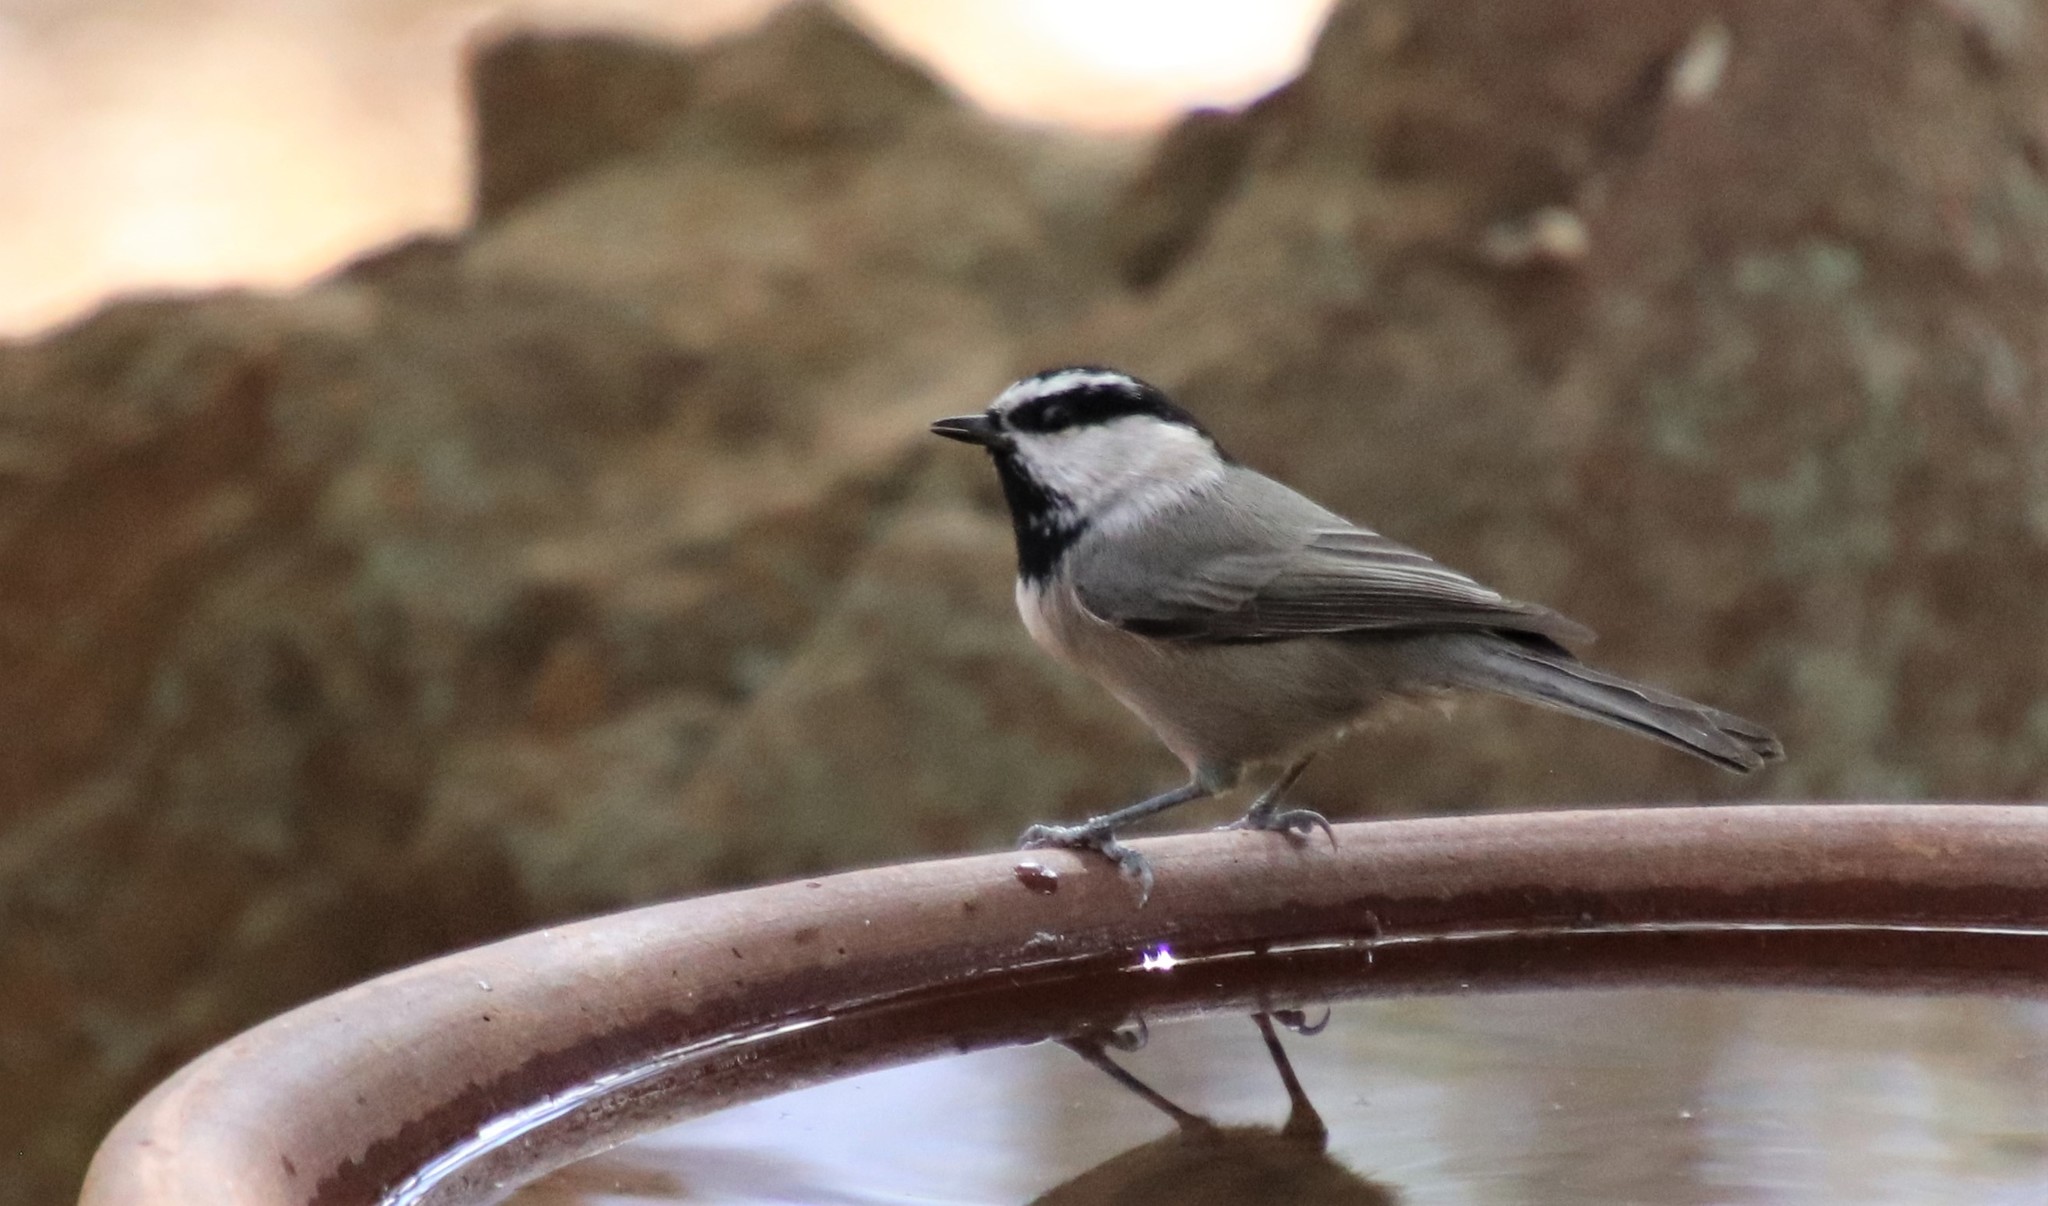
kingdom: Animalia
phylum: Chordata
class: Aves
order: Passeriformes
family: Paridae
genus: Poecile
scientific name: Poecile gambeli
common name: Mountain chickadee
